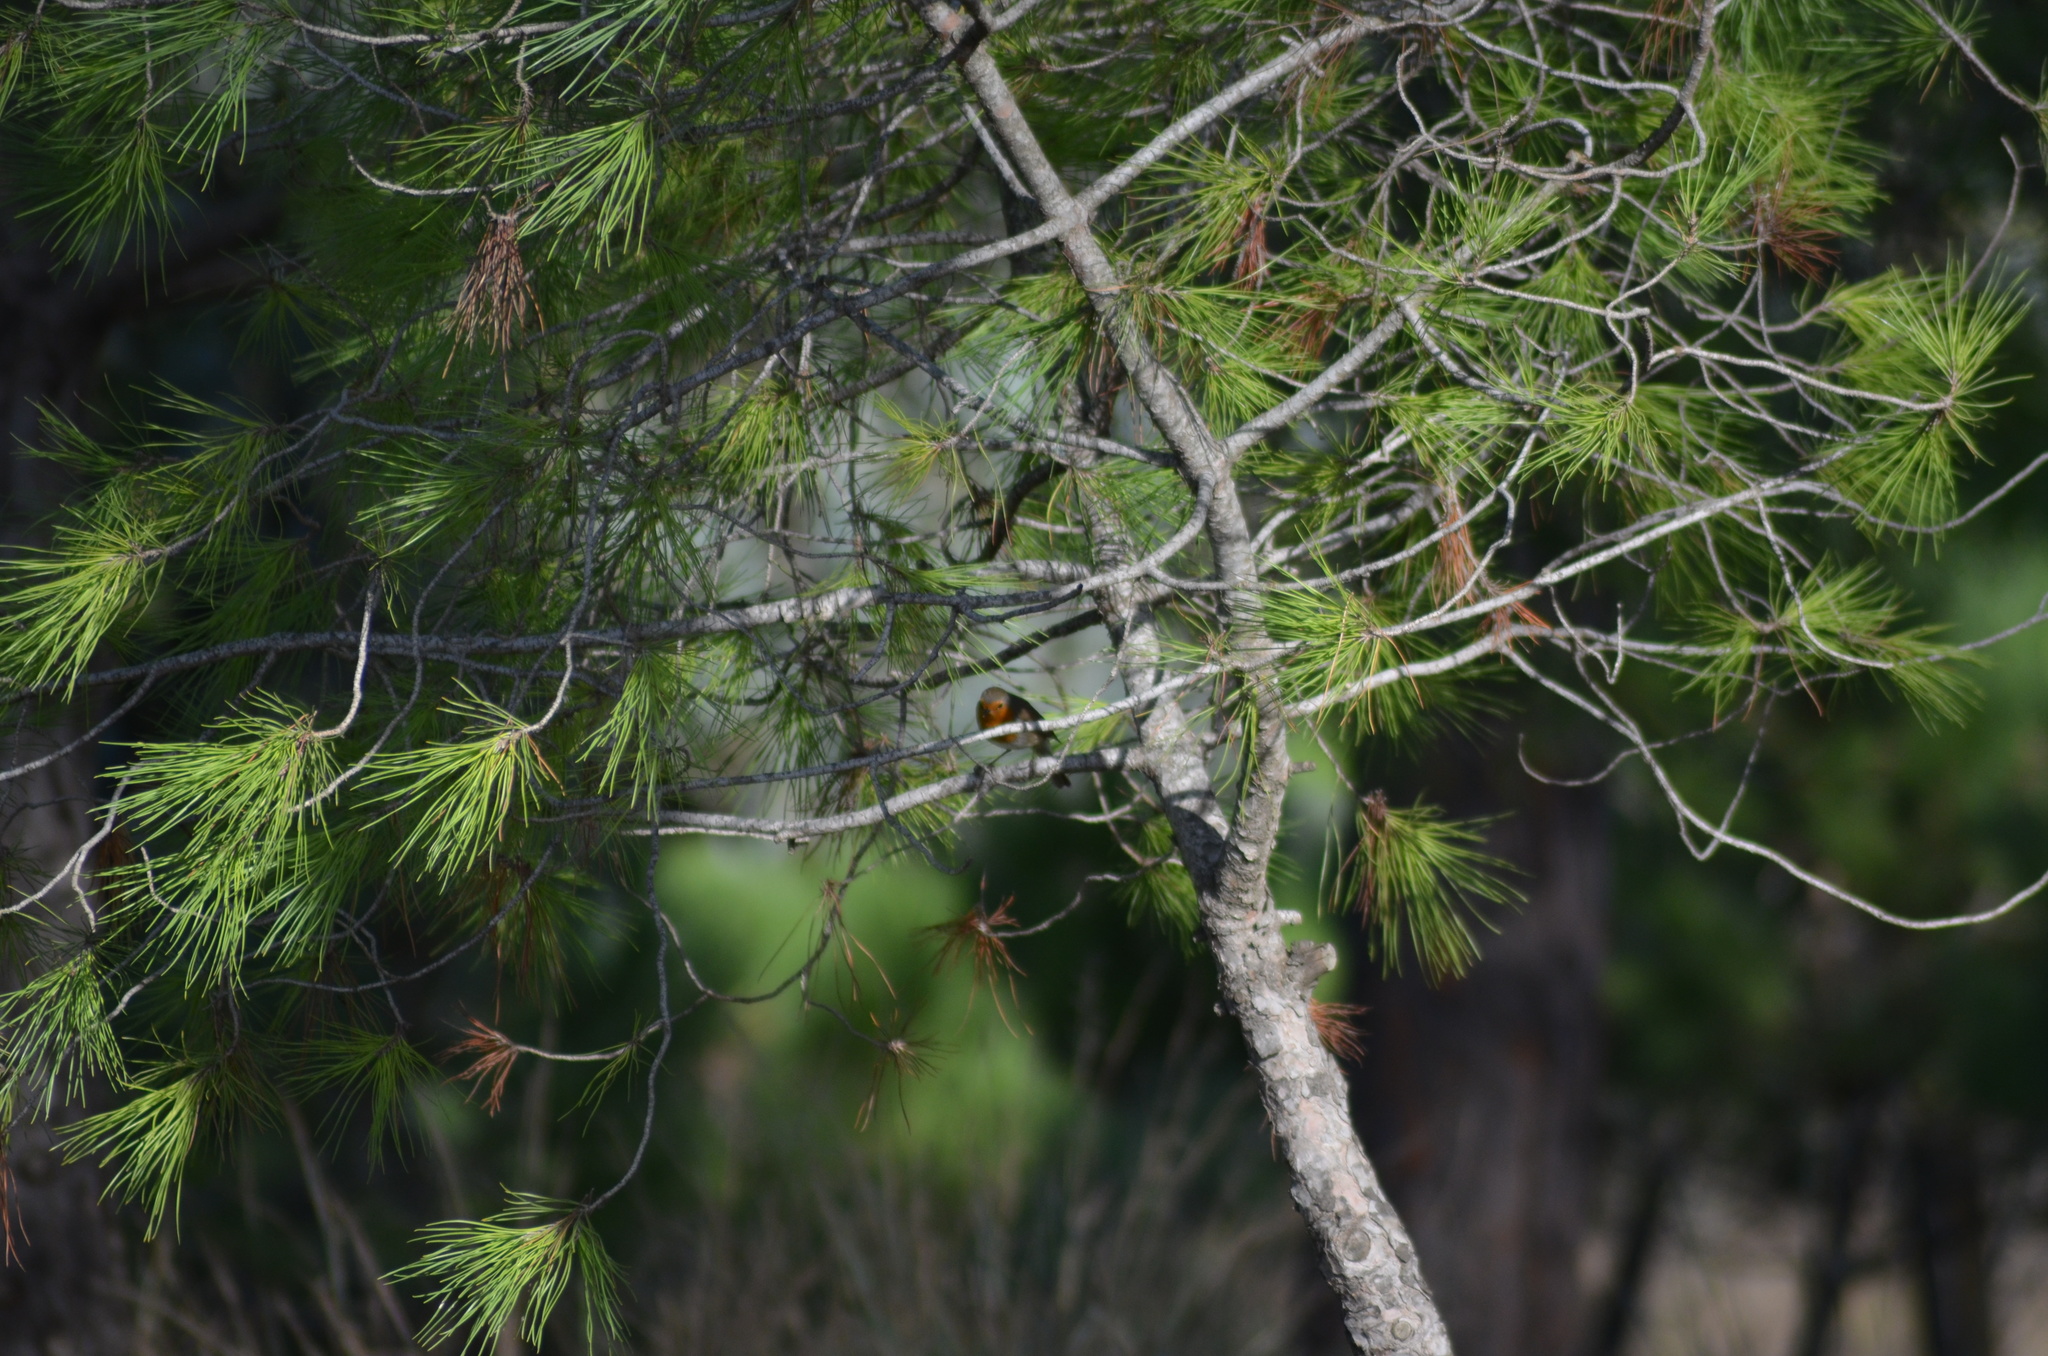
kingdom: Animalia
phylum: Chordata
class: Aves
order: Passeriformes
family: Muscicapidae
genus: Erithacus
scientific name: Erithacus rubecula
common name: European robin
